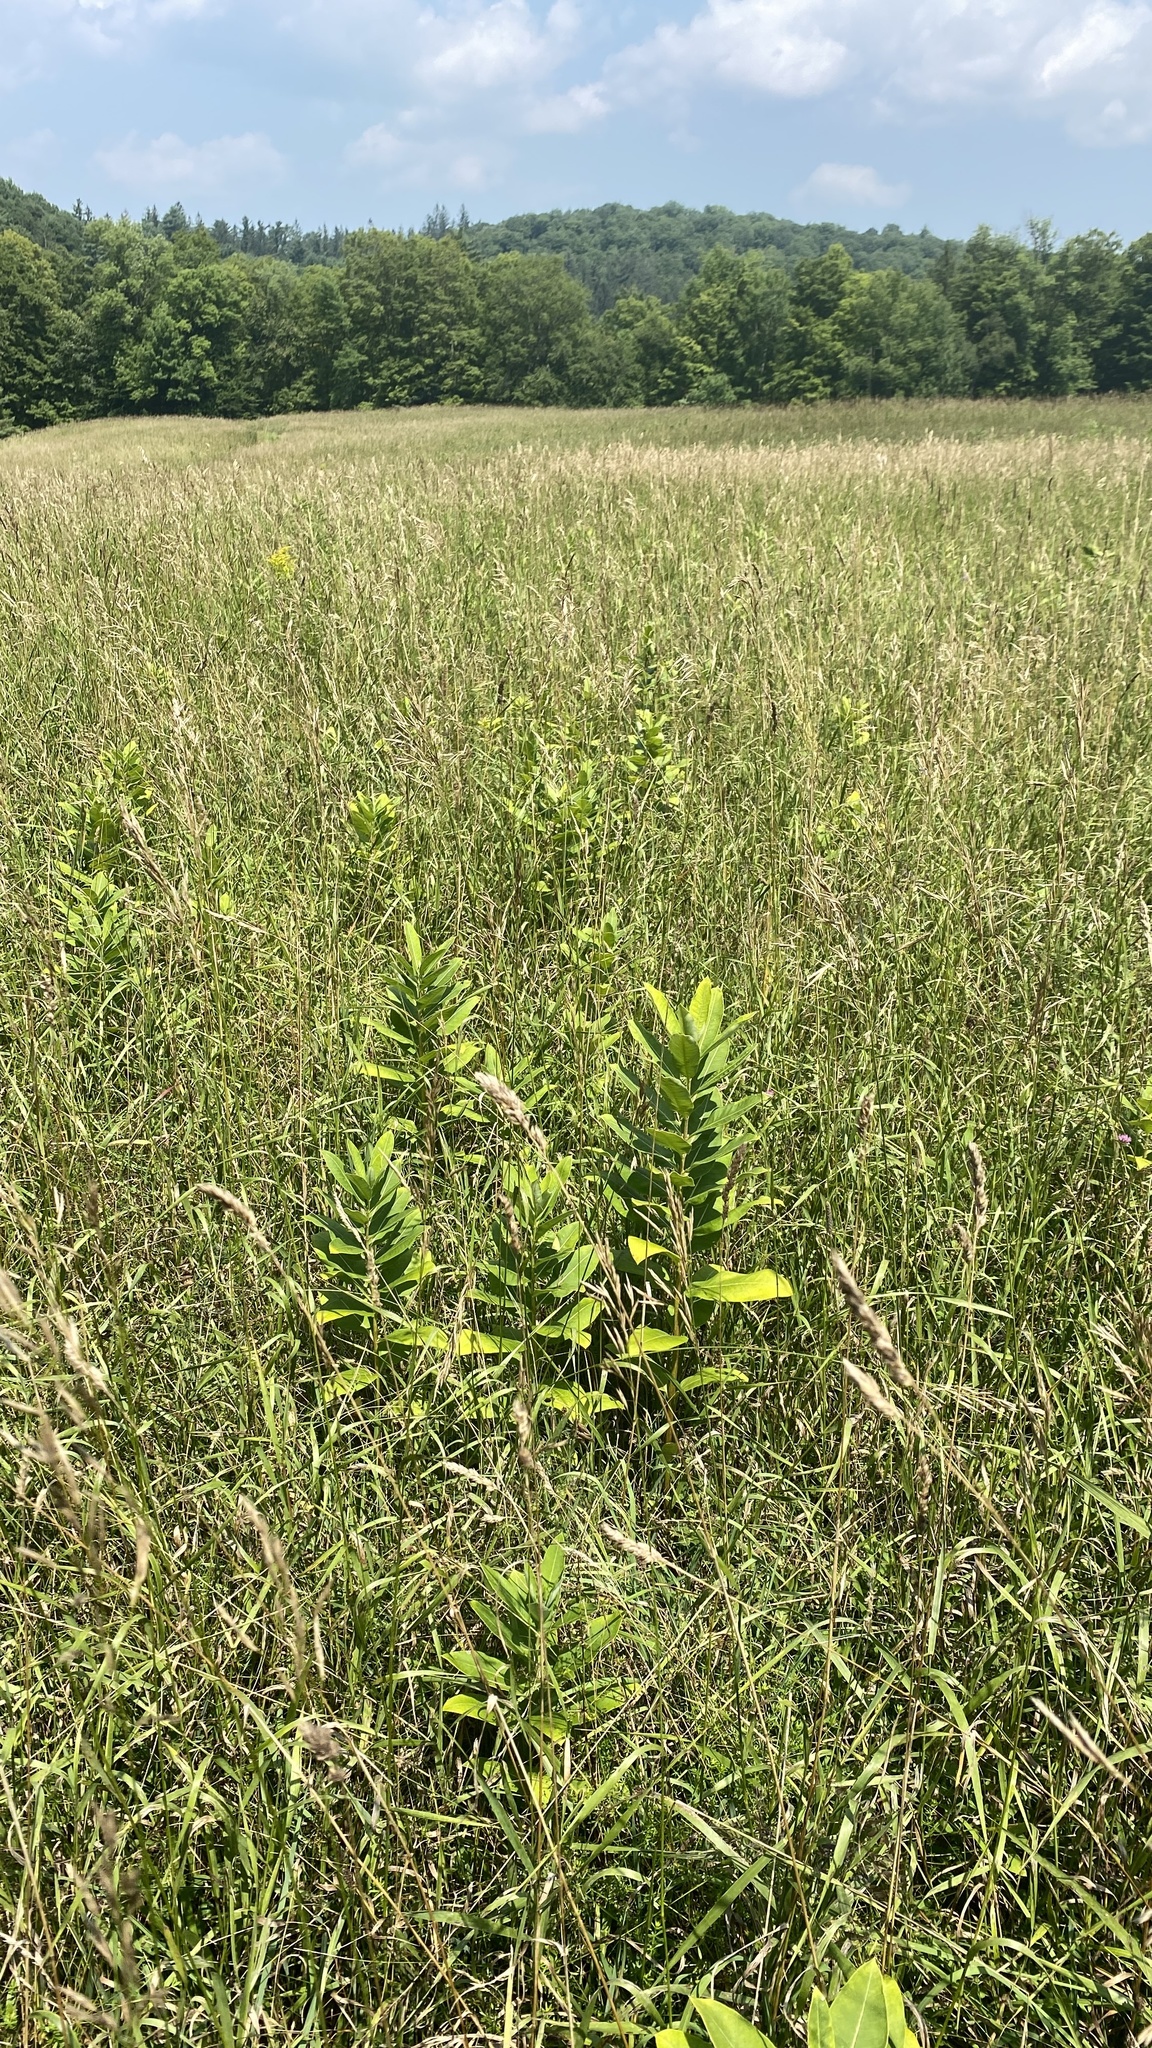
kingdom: Plantae
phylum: Tracheophyta
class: Magnoliopsida
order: Gentianales
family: Apocynaceae
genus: Asclepias
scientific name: Asclepias syriaca
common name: Common milkweed
